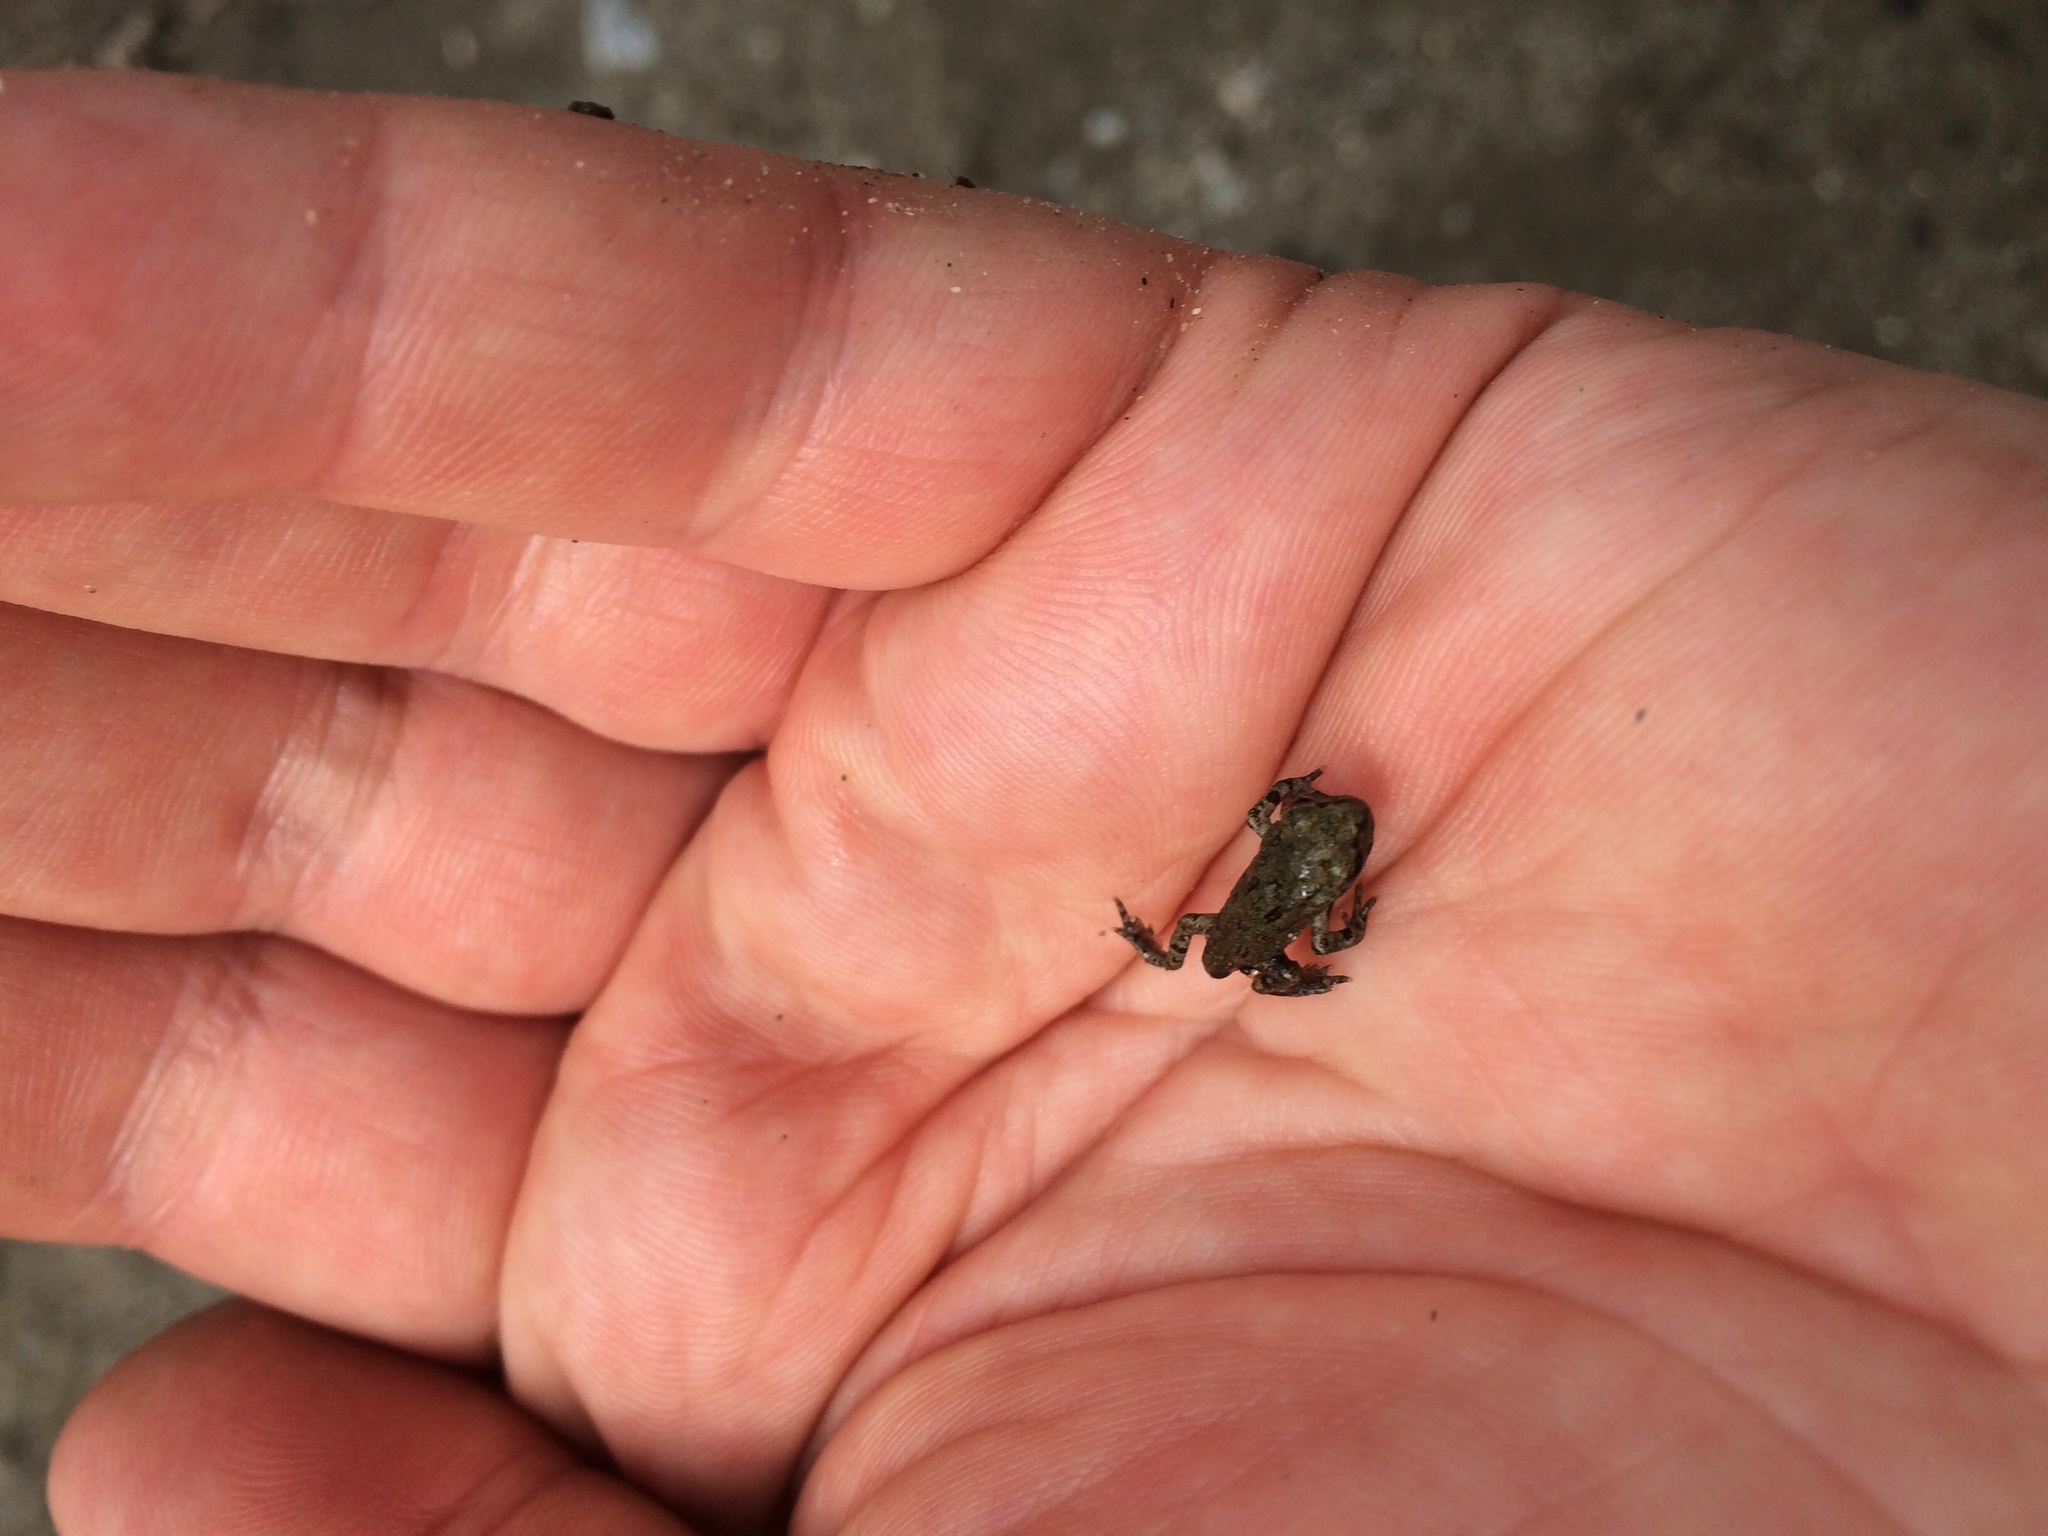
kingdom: Animalia
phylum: Chordata
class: Amphibia
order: Anura
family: Bufonidae
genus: Anaxyrus
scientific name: Anaxyrus boreas
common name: Western toad
